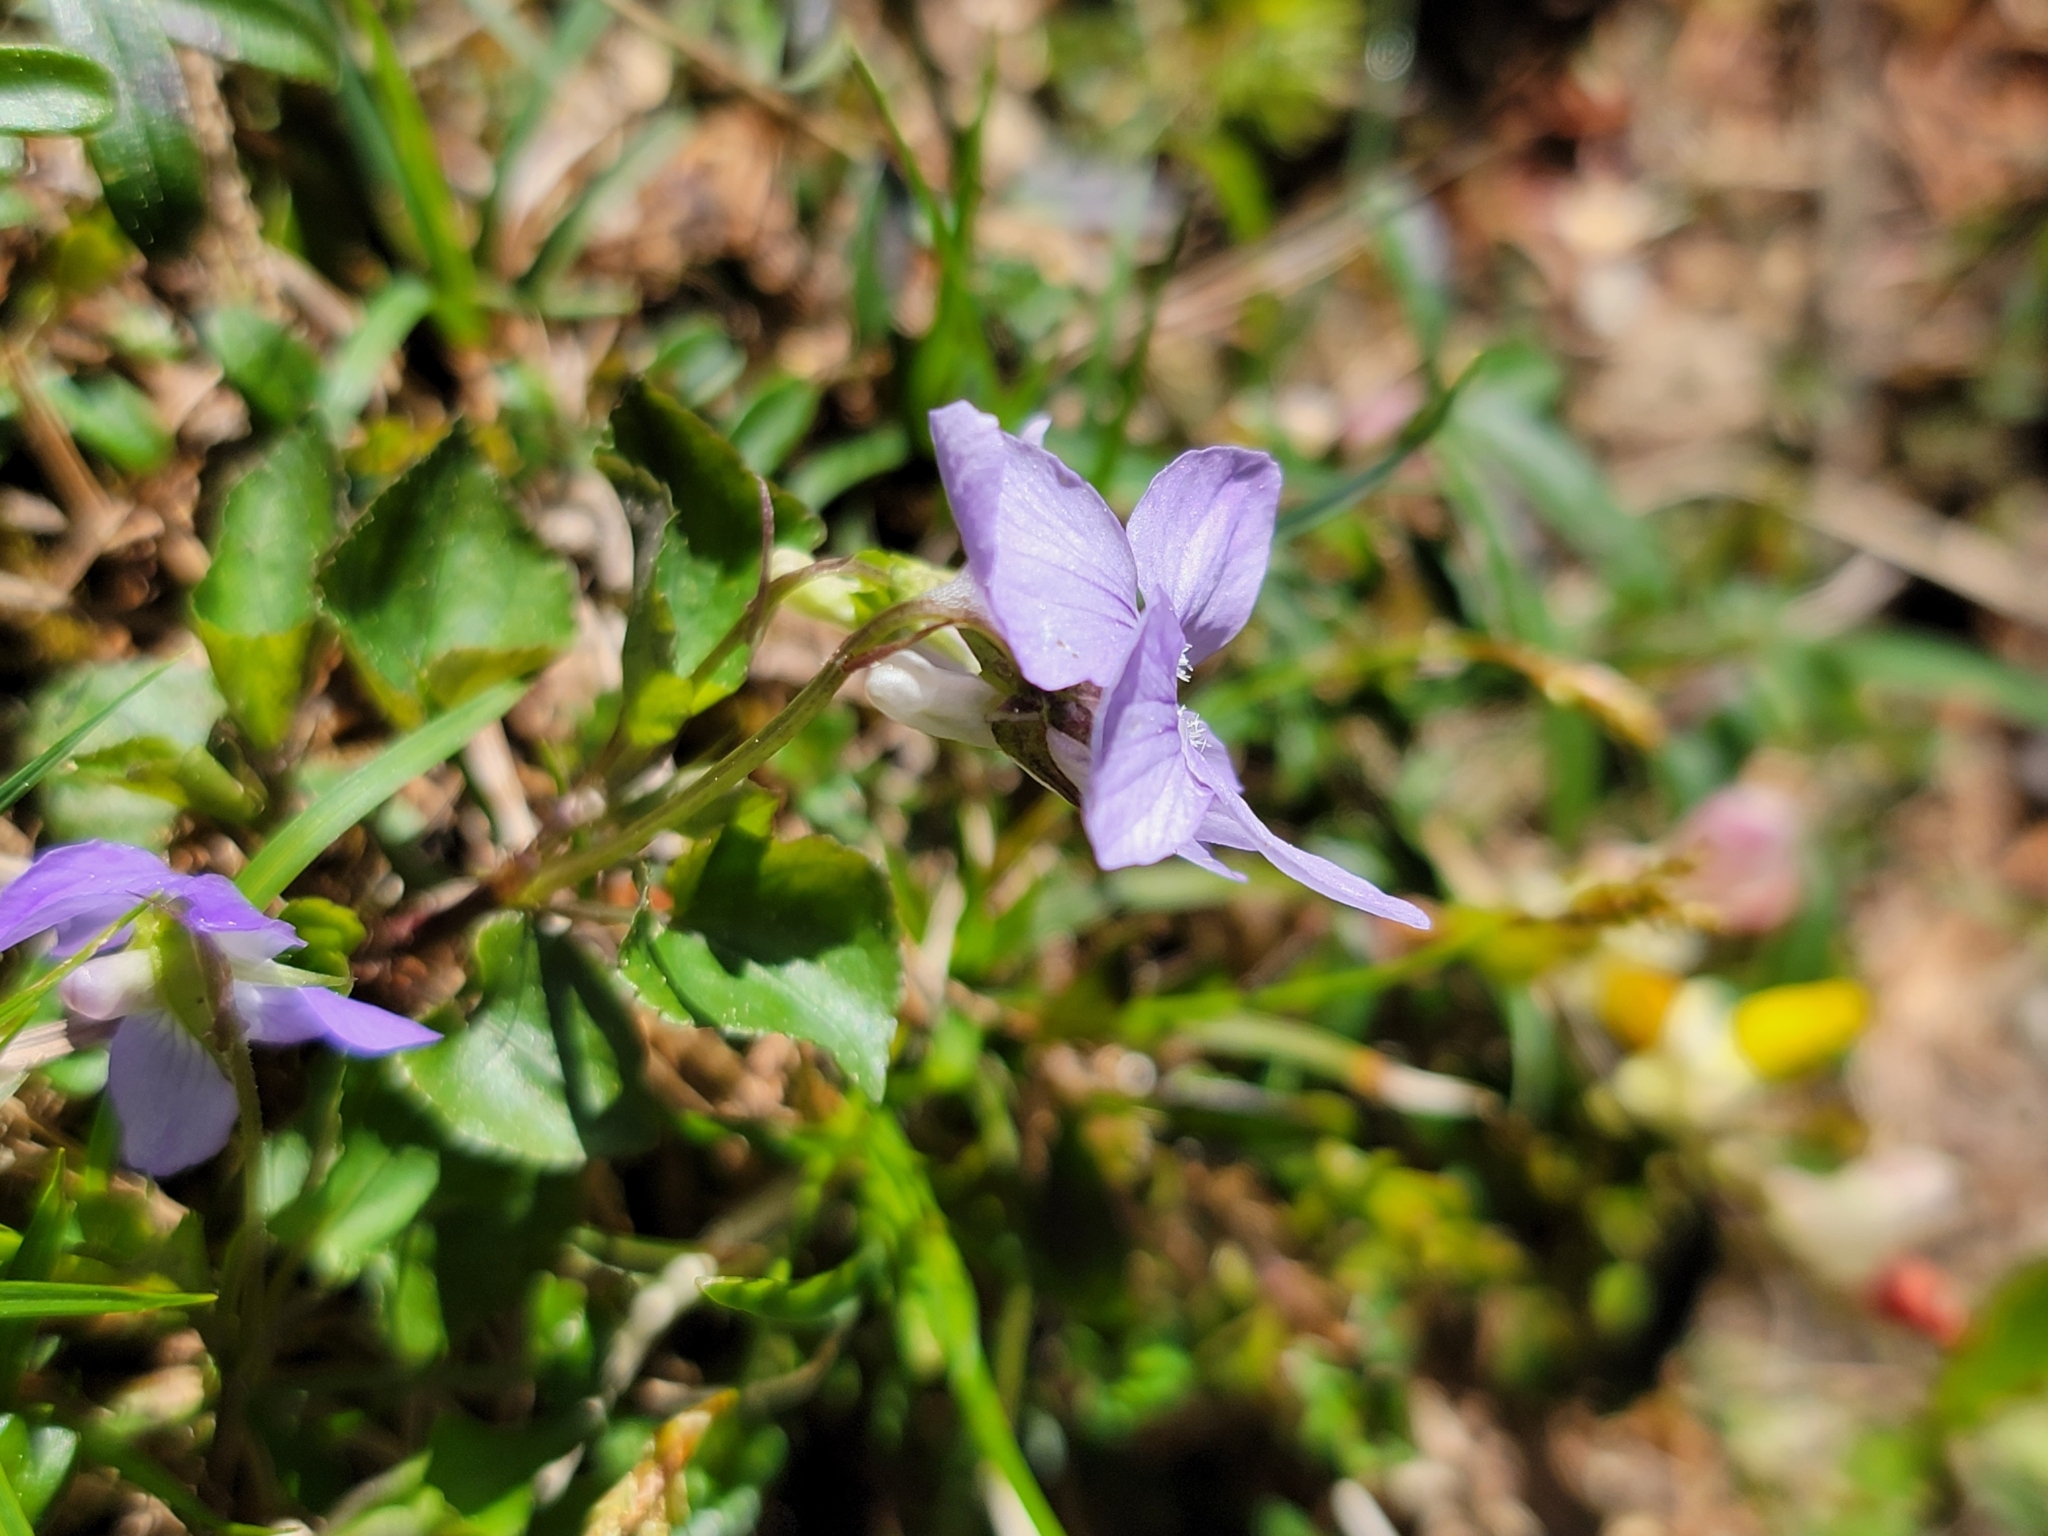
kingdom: Plantae
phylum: Tracheophyta
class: Magnoliopsida
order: Malpighiales
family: Violaceae
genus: Viola
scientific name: Viola riviniana
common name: Common dog-violet
